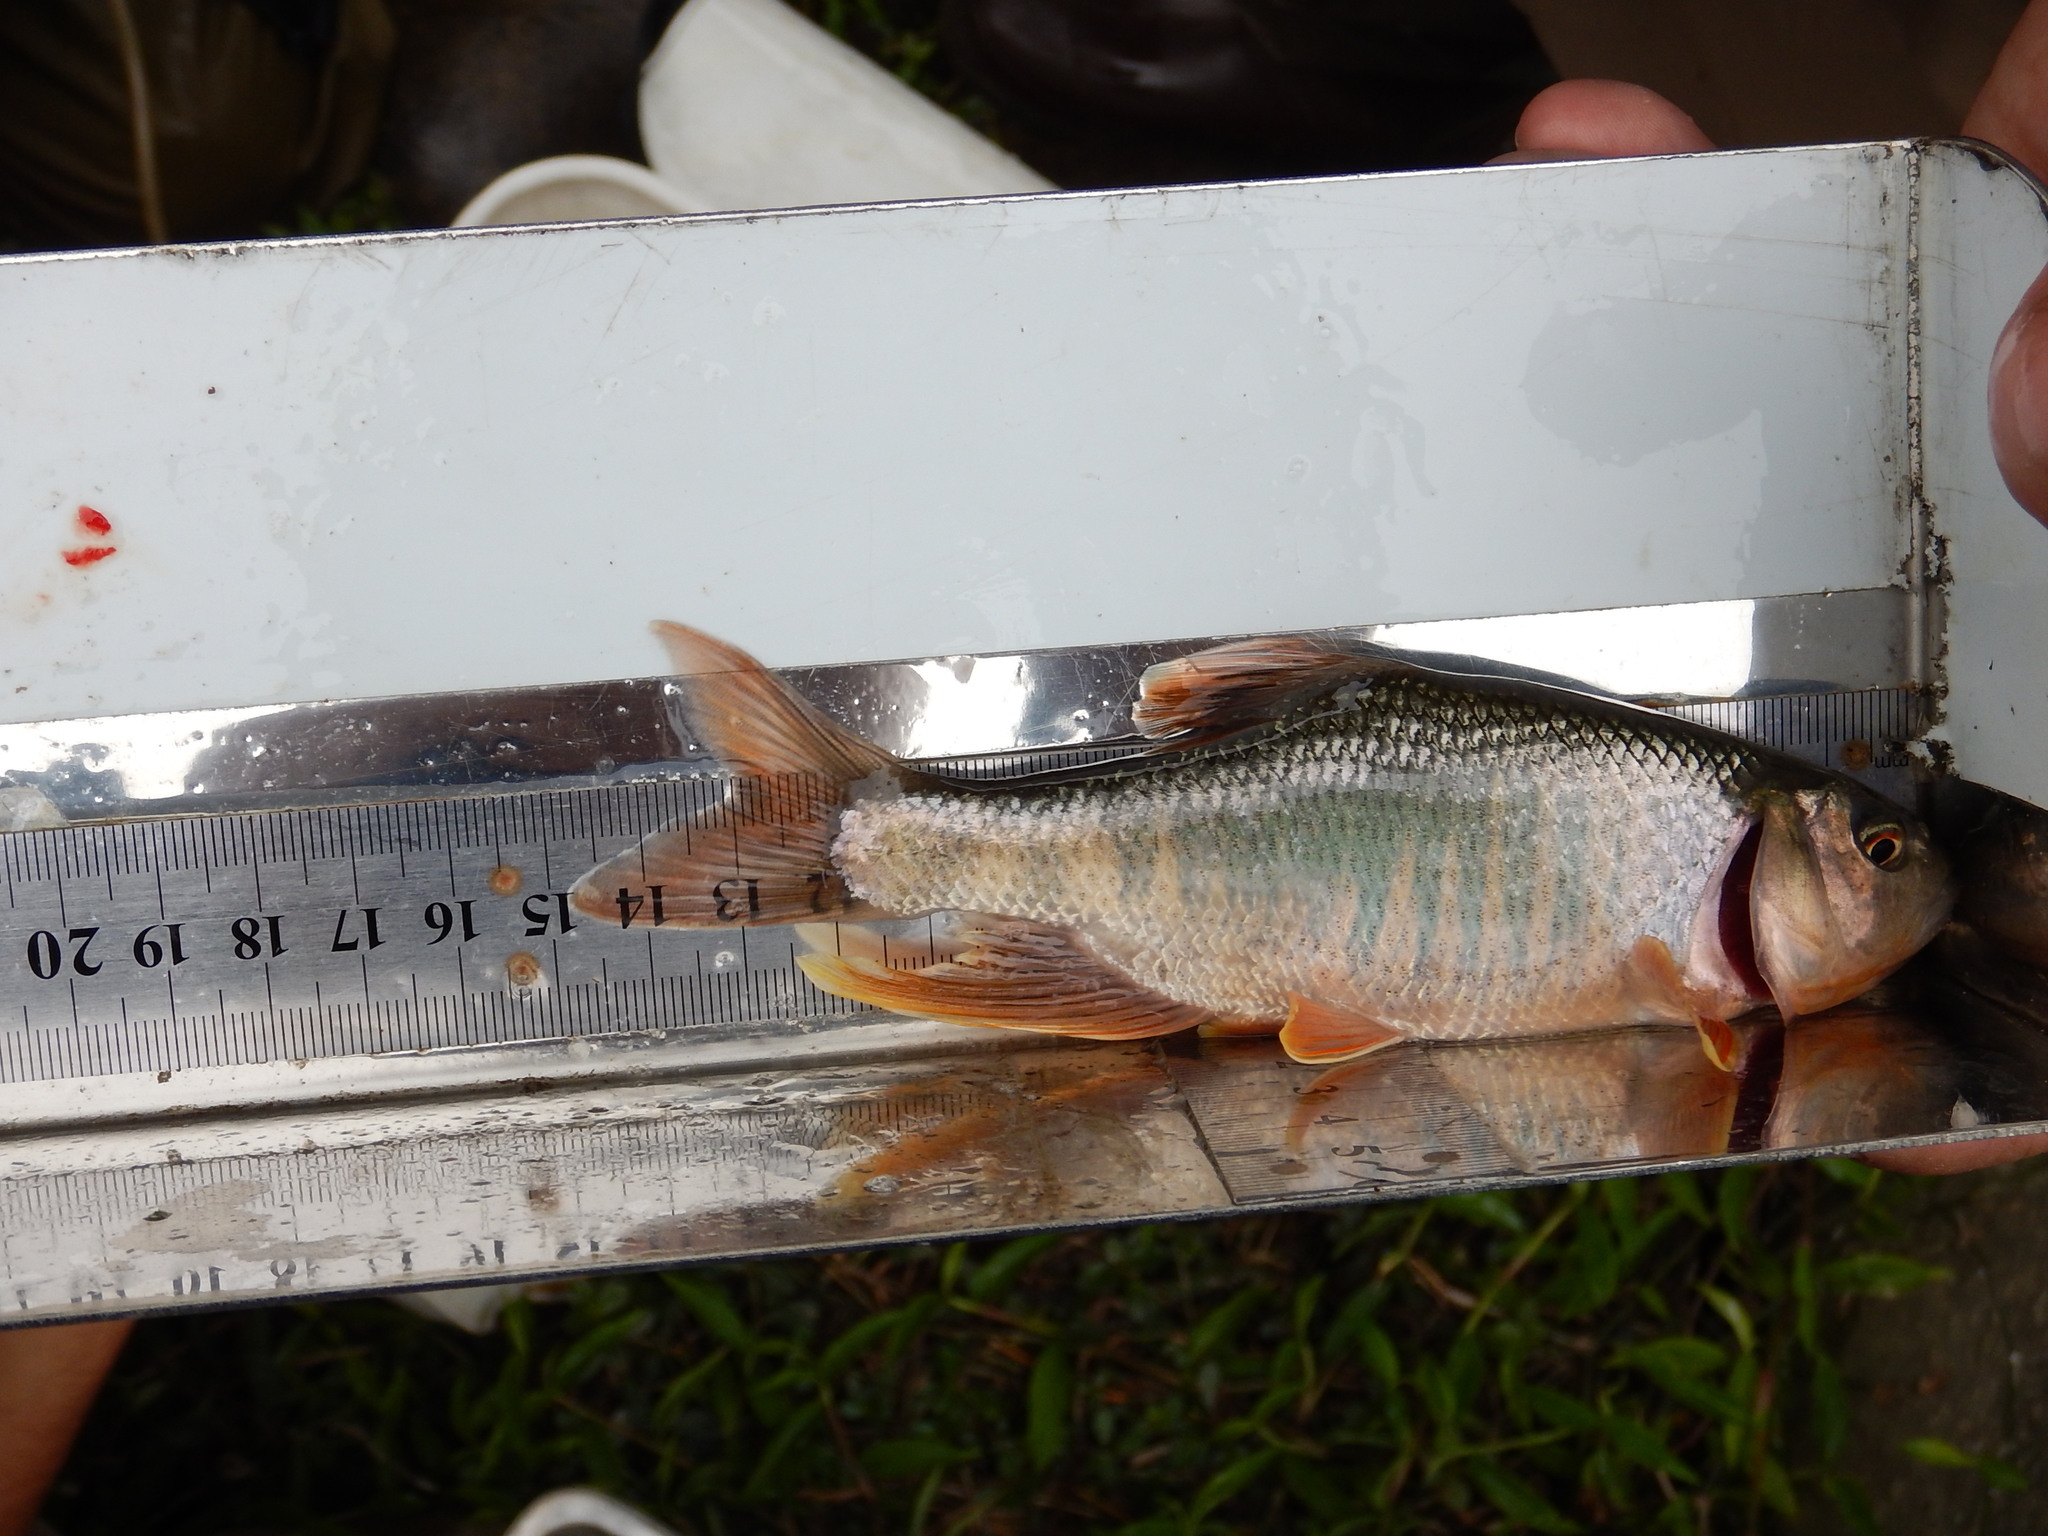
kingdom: Animalia
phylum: Chordata
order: Cypriniformes
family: Cyprinidae
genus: Opsariichthys
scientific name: Opsariichthys pachycephalus
